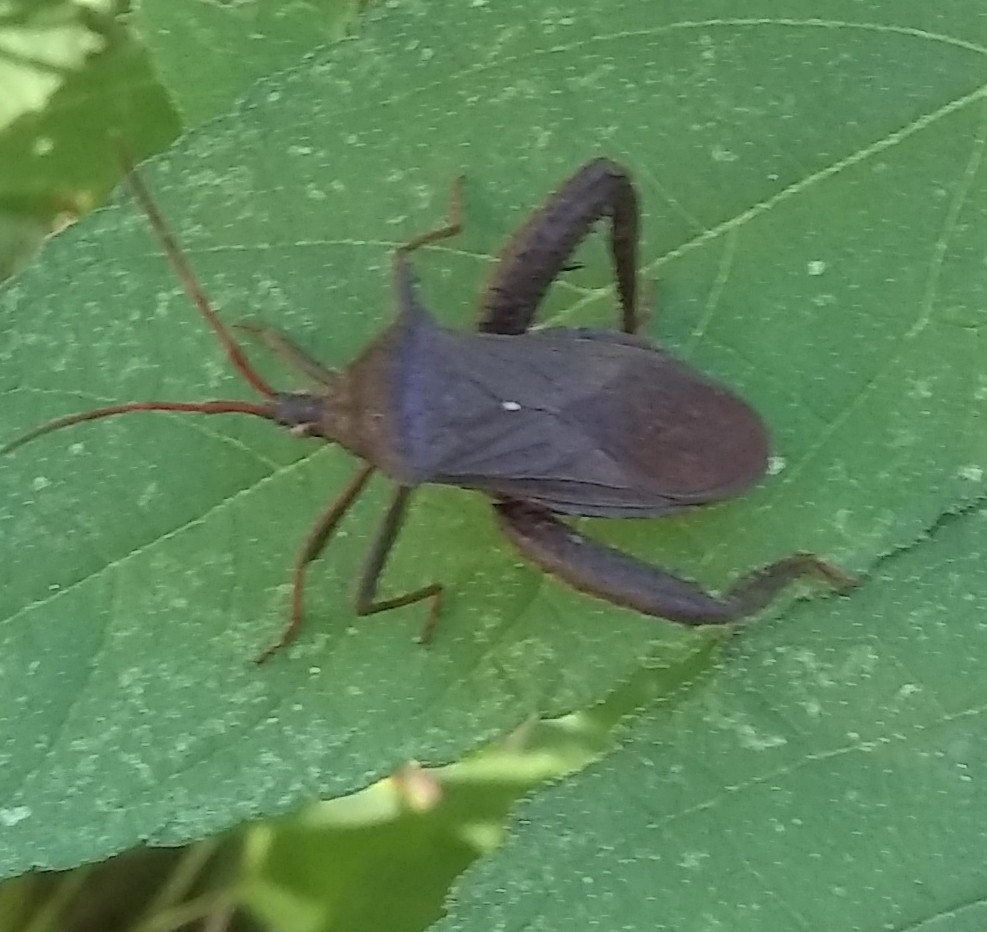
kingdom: Animalia
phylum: Arthropoda
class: Insecta
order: Hemiptera
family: Coreidae
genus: Acanthocephala
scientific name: Acanthocephala femorata
